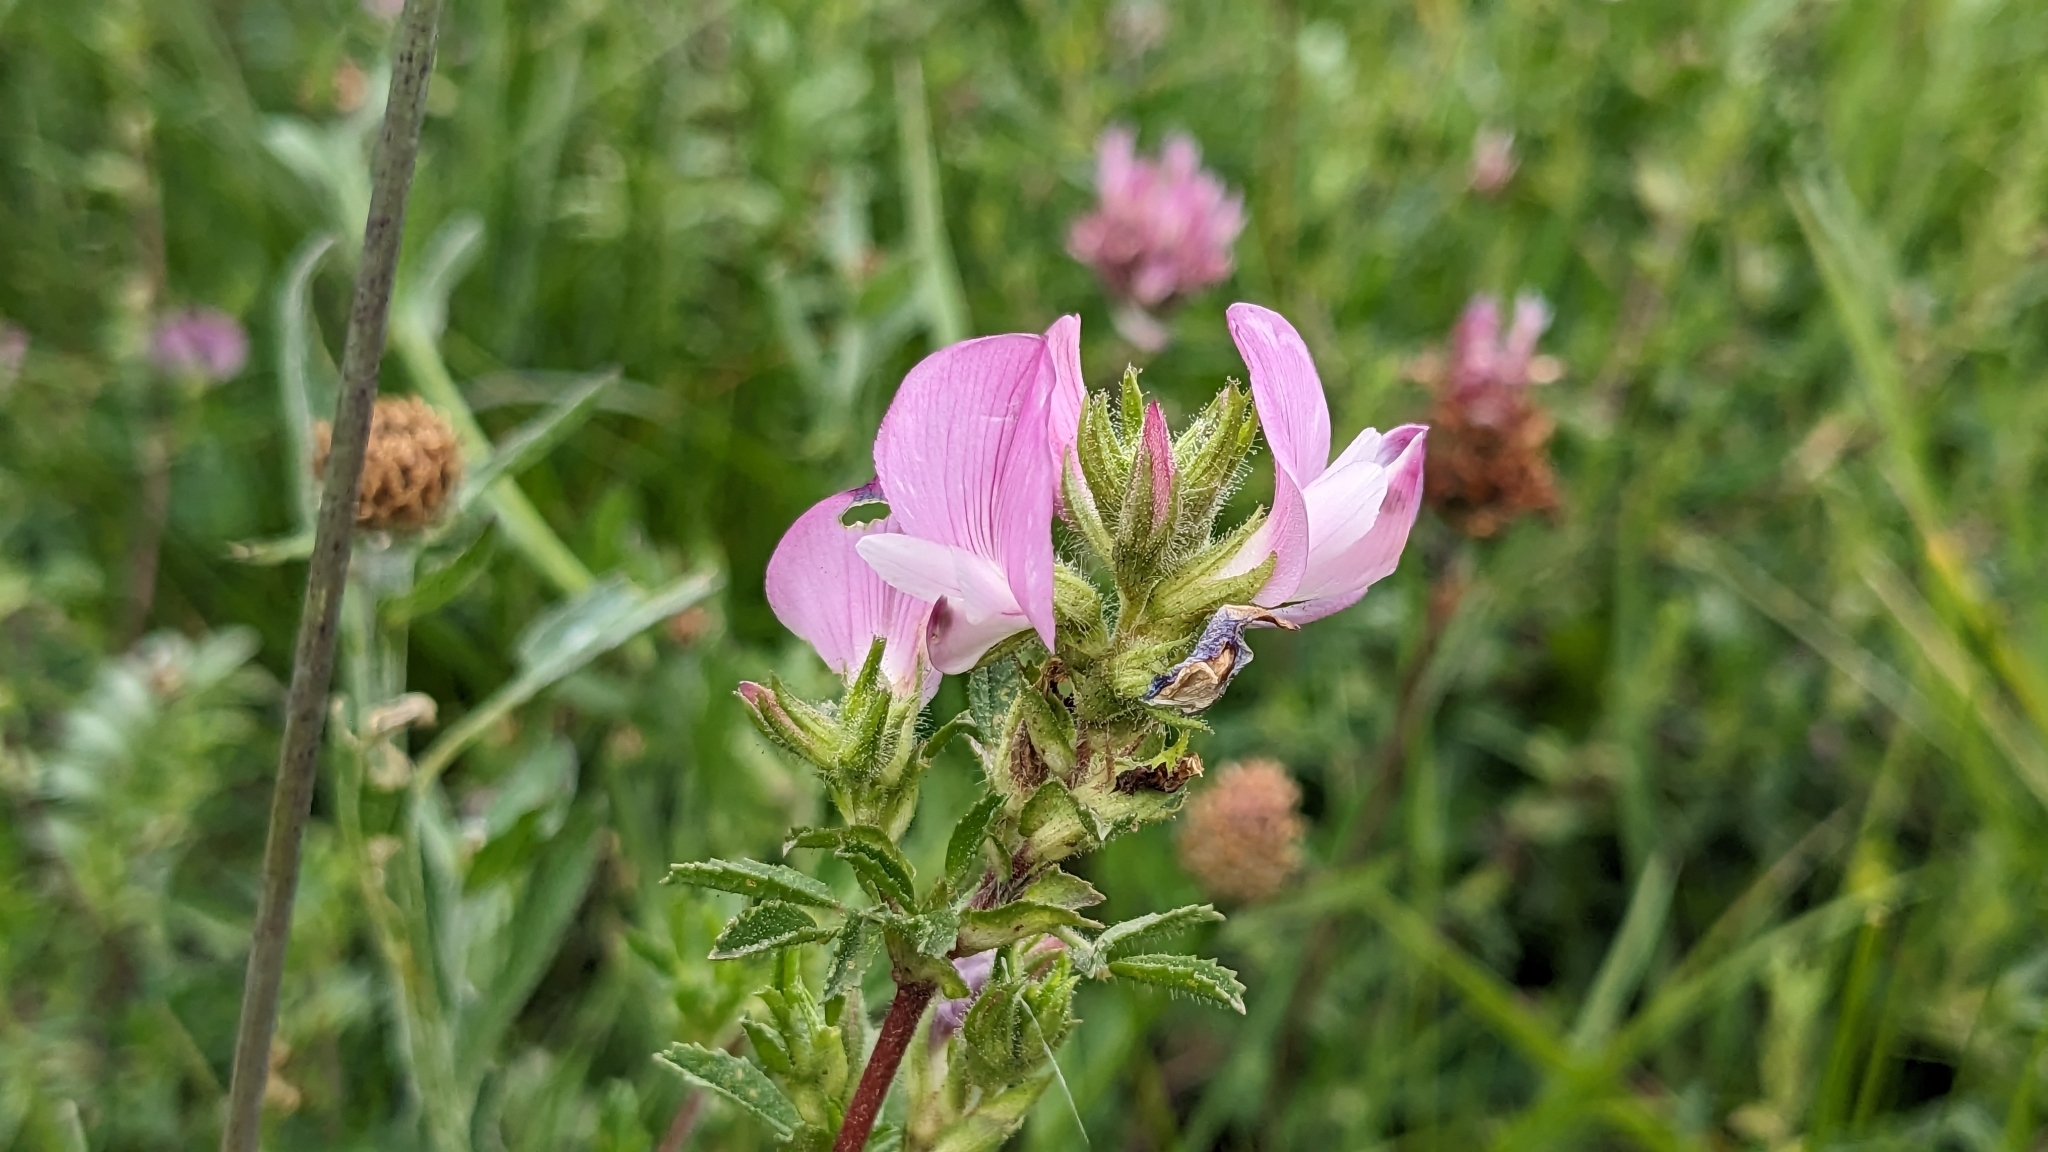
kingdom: Plantae
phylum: Tracheophyta
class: Magnoliopsida
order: Fabales
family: Fabaceae
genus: Ononis
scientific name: Ononis spinosa
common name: Spiny restharrow
